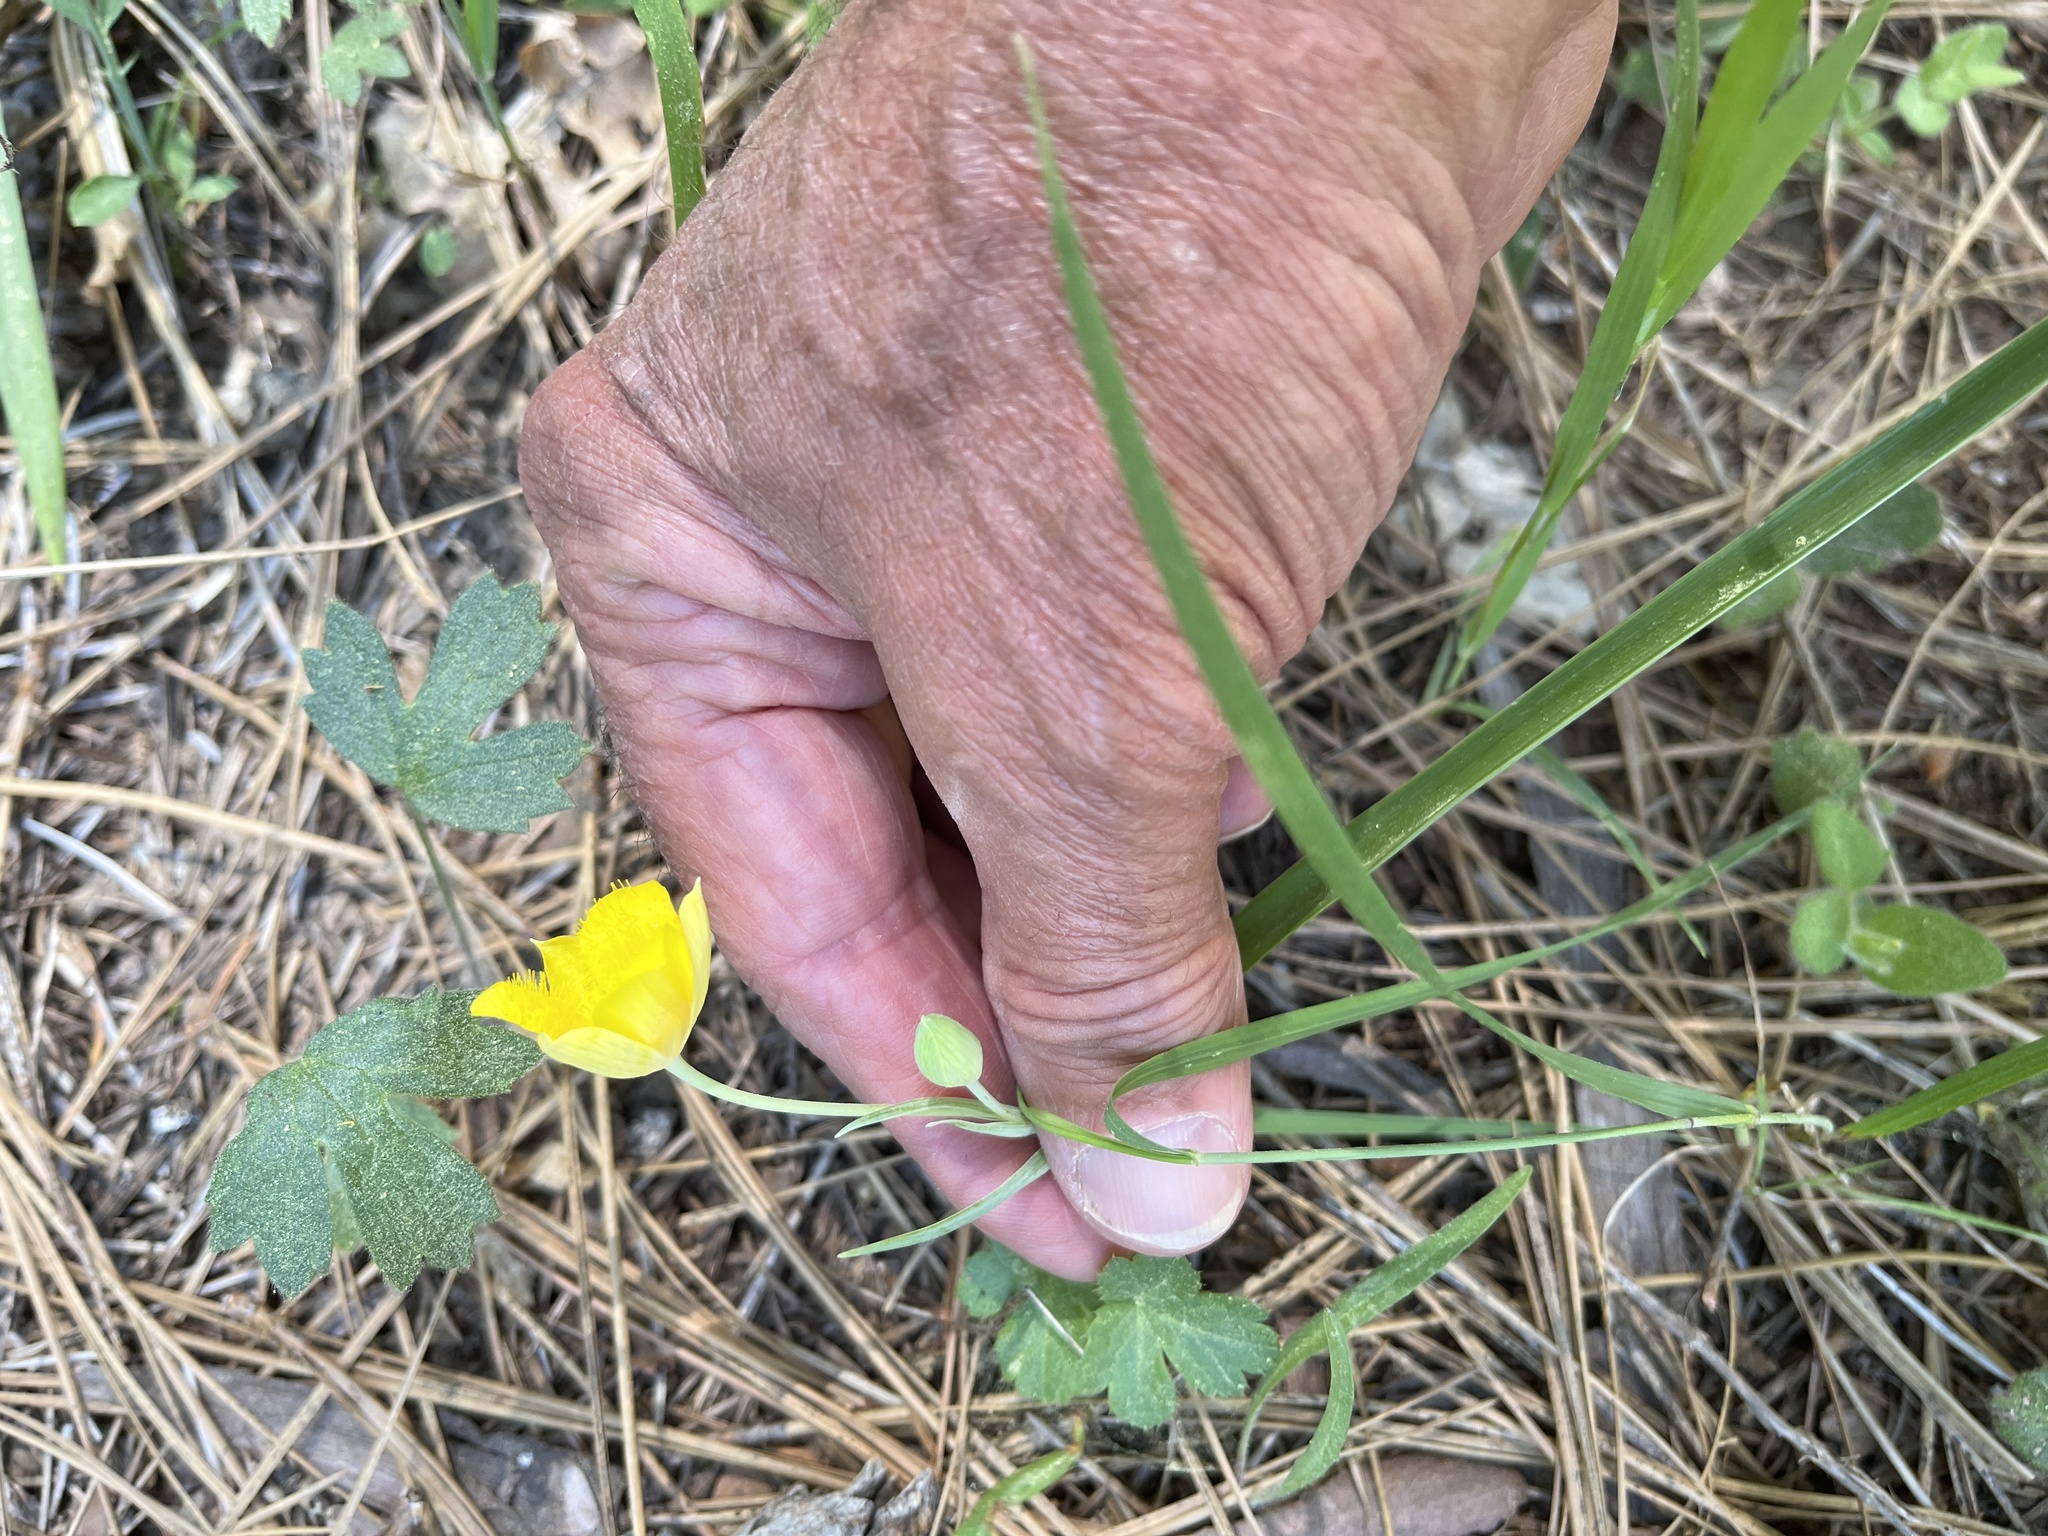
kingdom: Plantae
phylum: Tracheophyta
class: Liliopsida
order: Liliales
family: Liliaceae
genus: Calochortus
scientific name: Calochortus monophyllus
